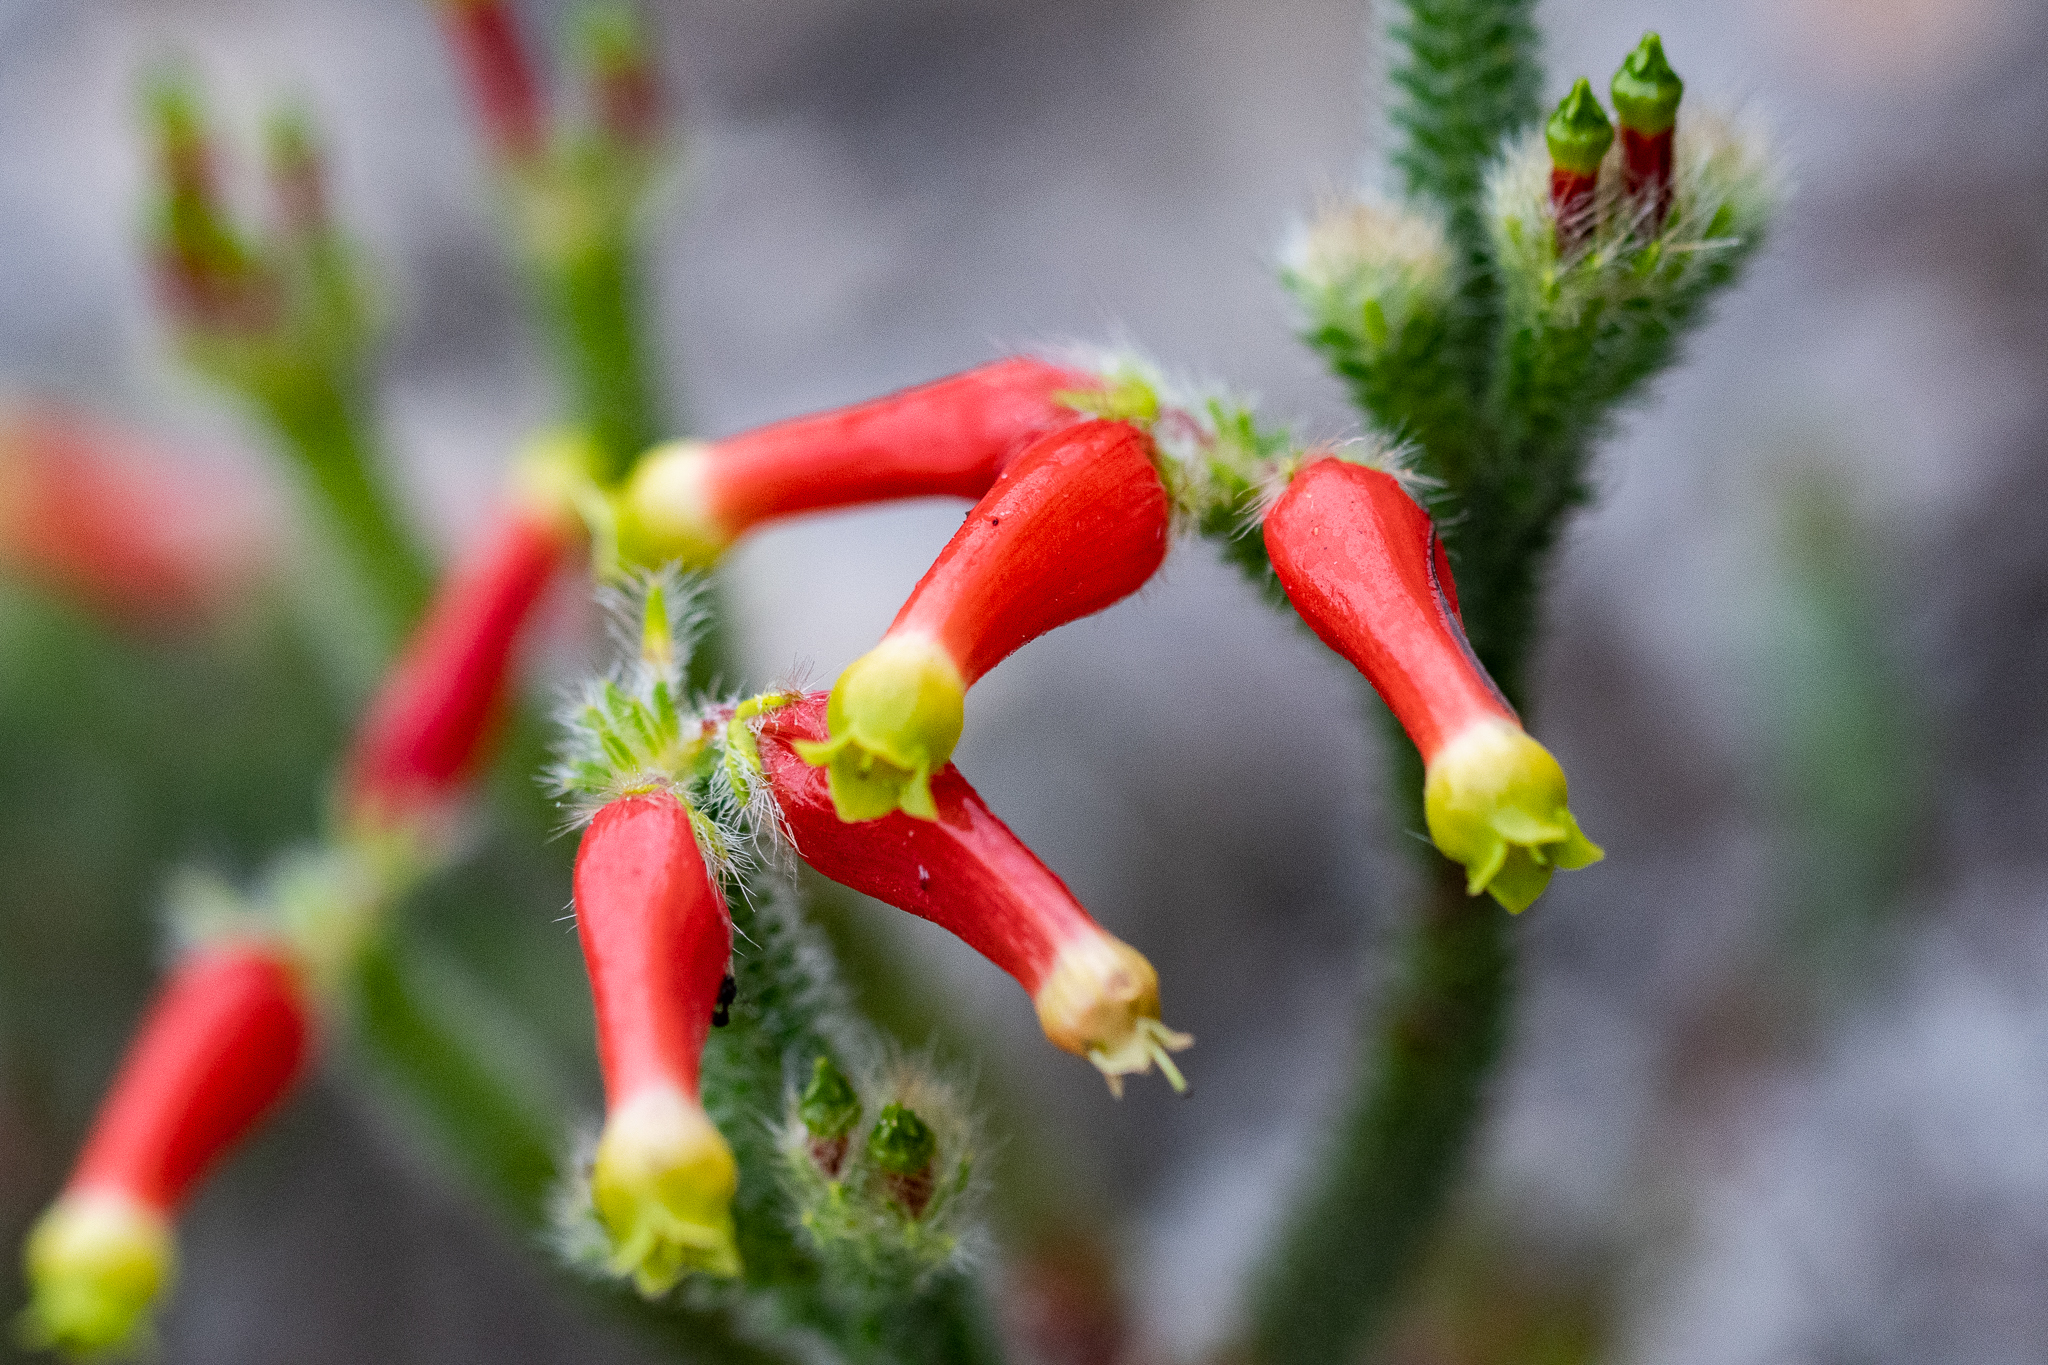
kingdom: Plantae
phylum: Tracheophyta
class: Magnoliopsida
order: Ericales
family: Ericaceae
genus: Erica
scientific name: Erica massonii
